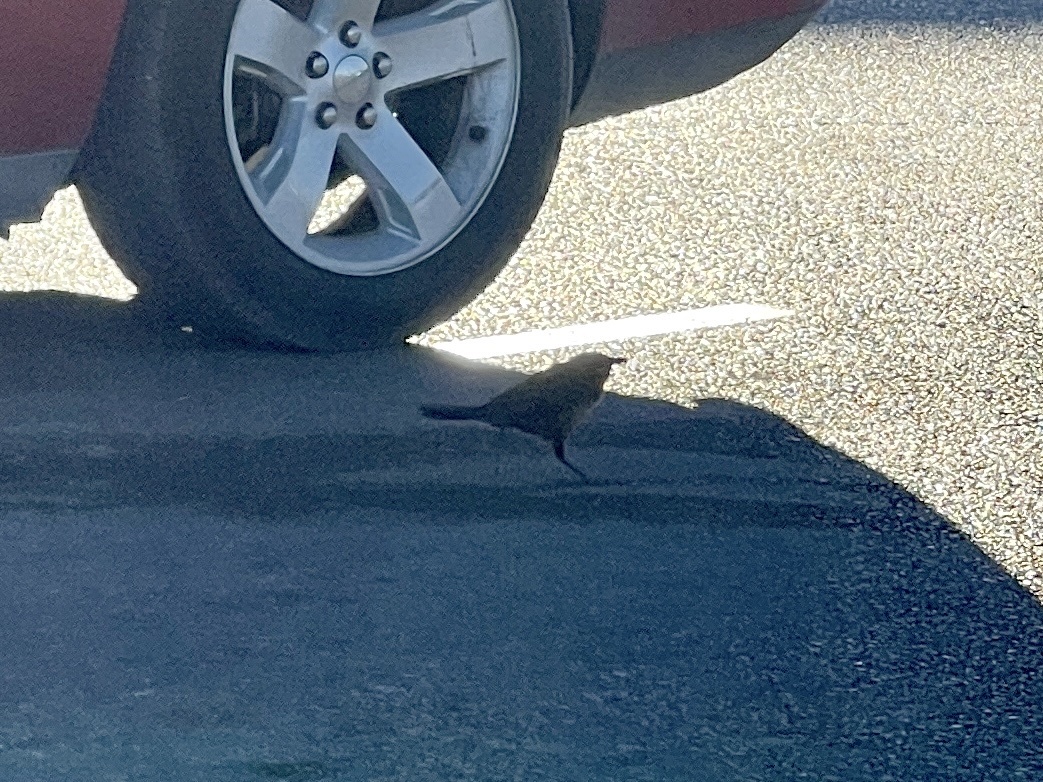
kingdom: Animalia
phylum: Chordata
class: Aves
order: Passeriformes
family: Icteridae
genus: Quiscalus
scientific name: Quiscalus mexicanus
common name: Great-tailed grackle
